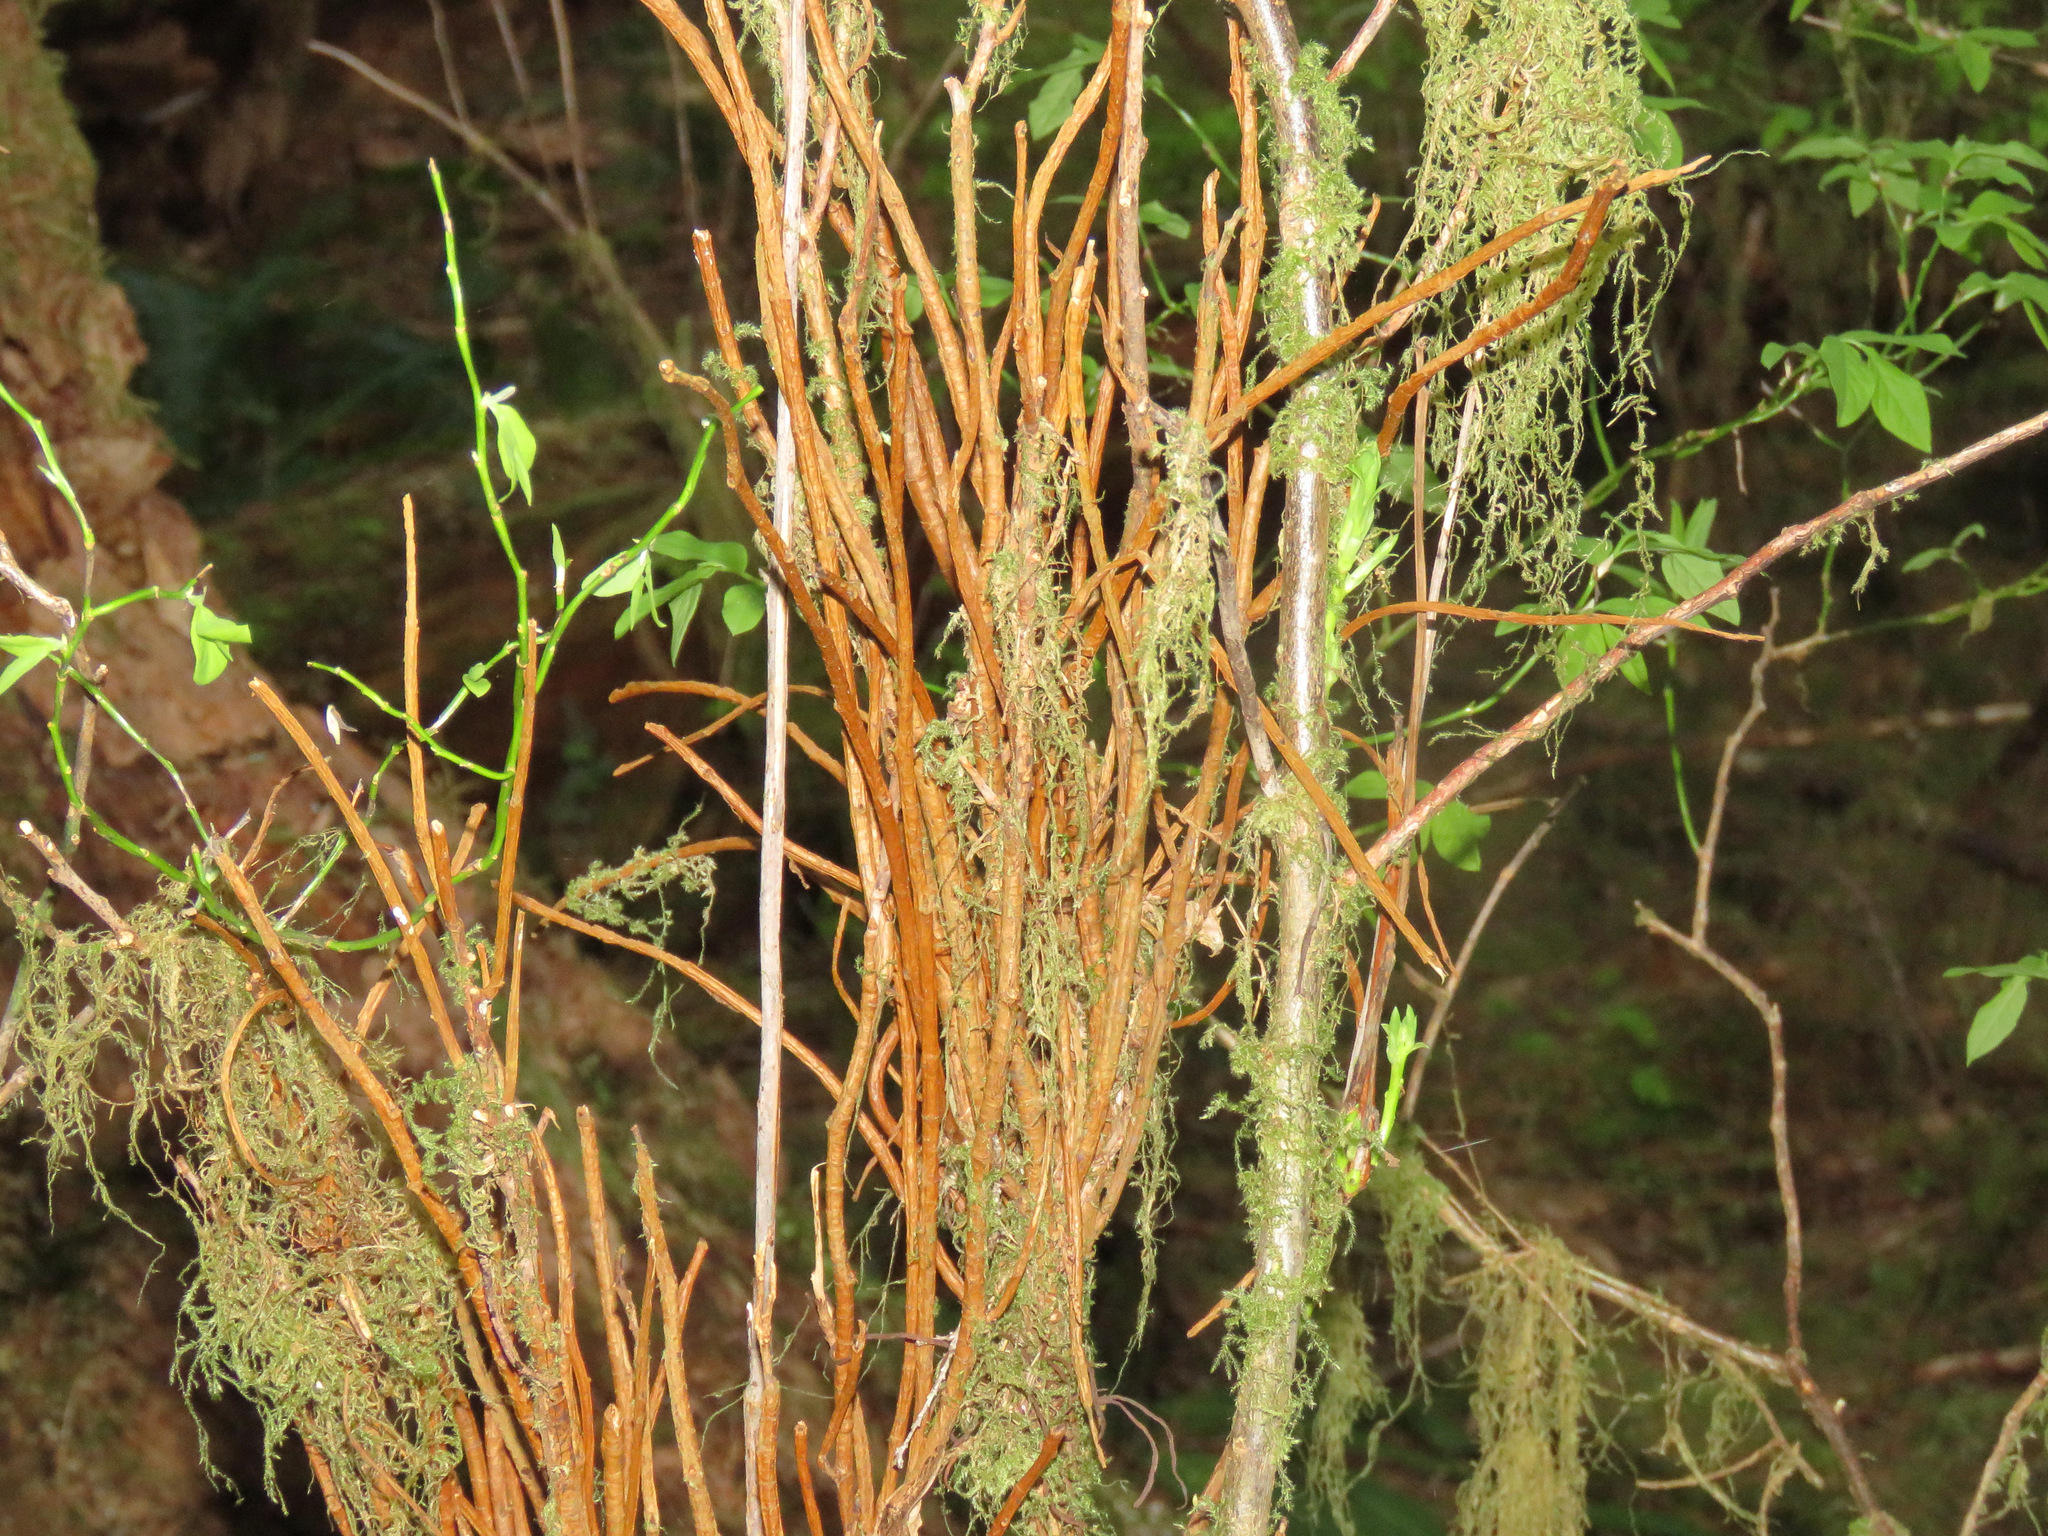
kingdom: Fungi
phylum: Basidiomycota
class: Pucciniomycetes
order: Pucciniales
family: Pucciniastraceae
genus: Calyptospora
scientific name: Calyptospora
